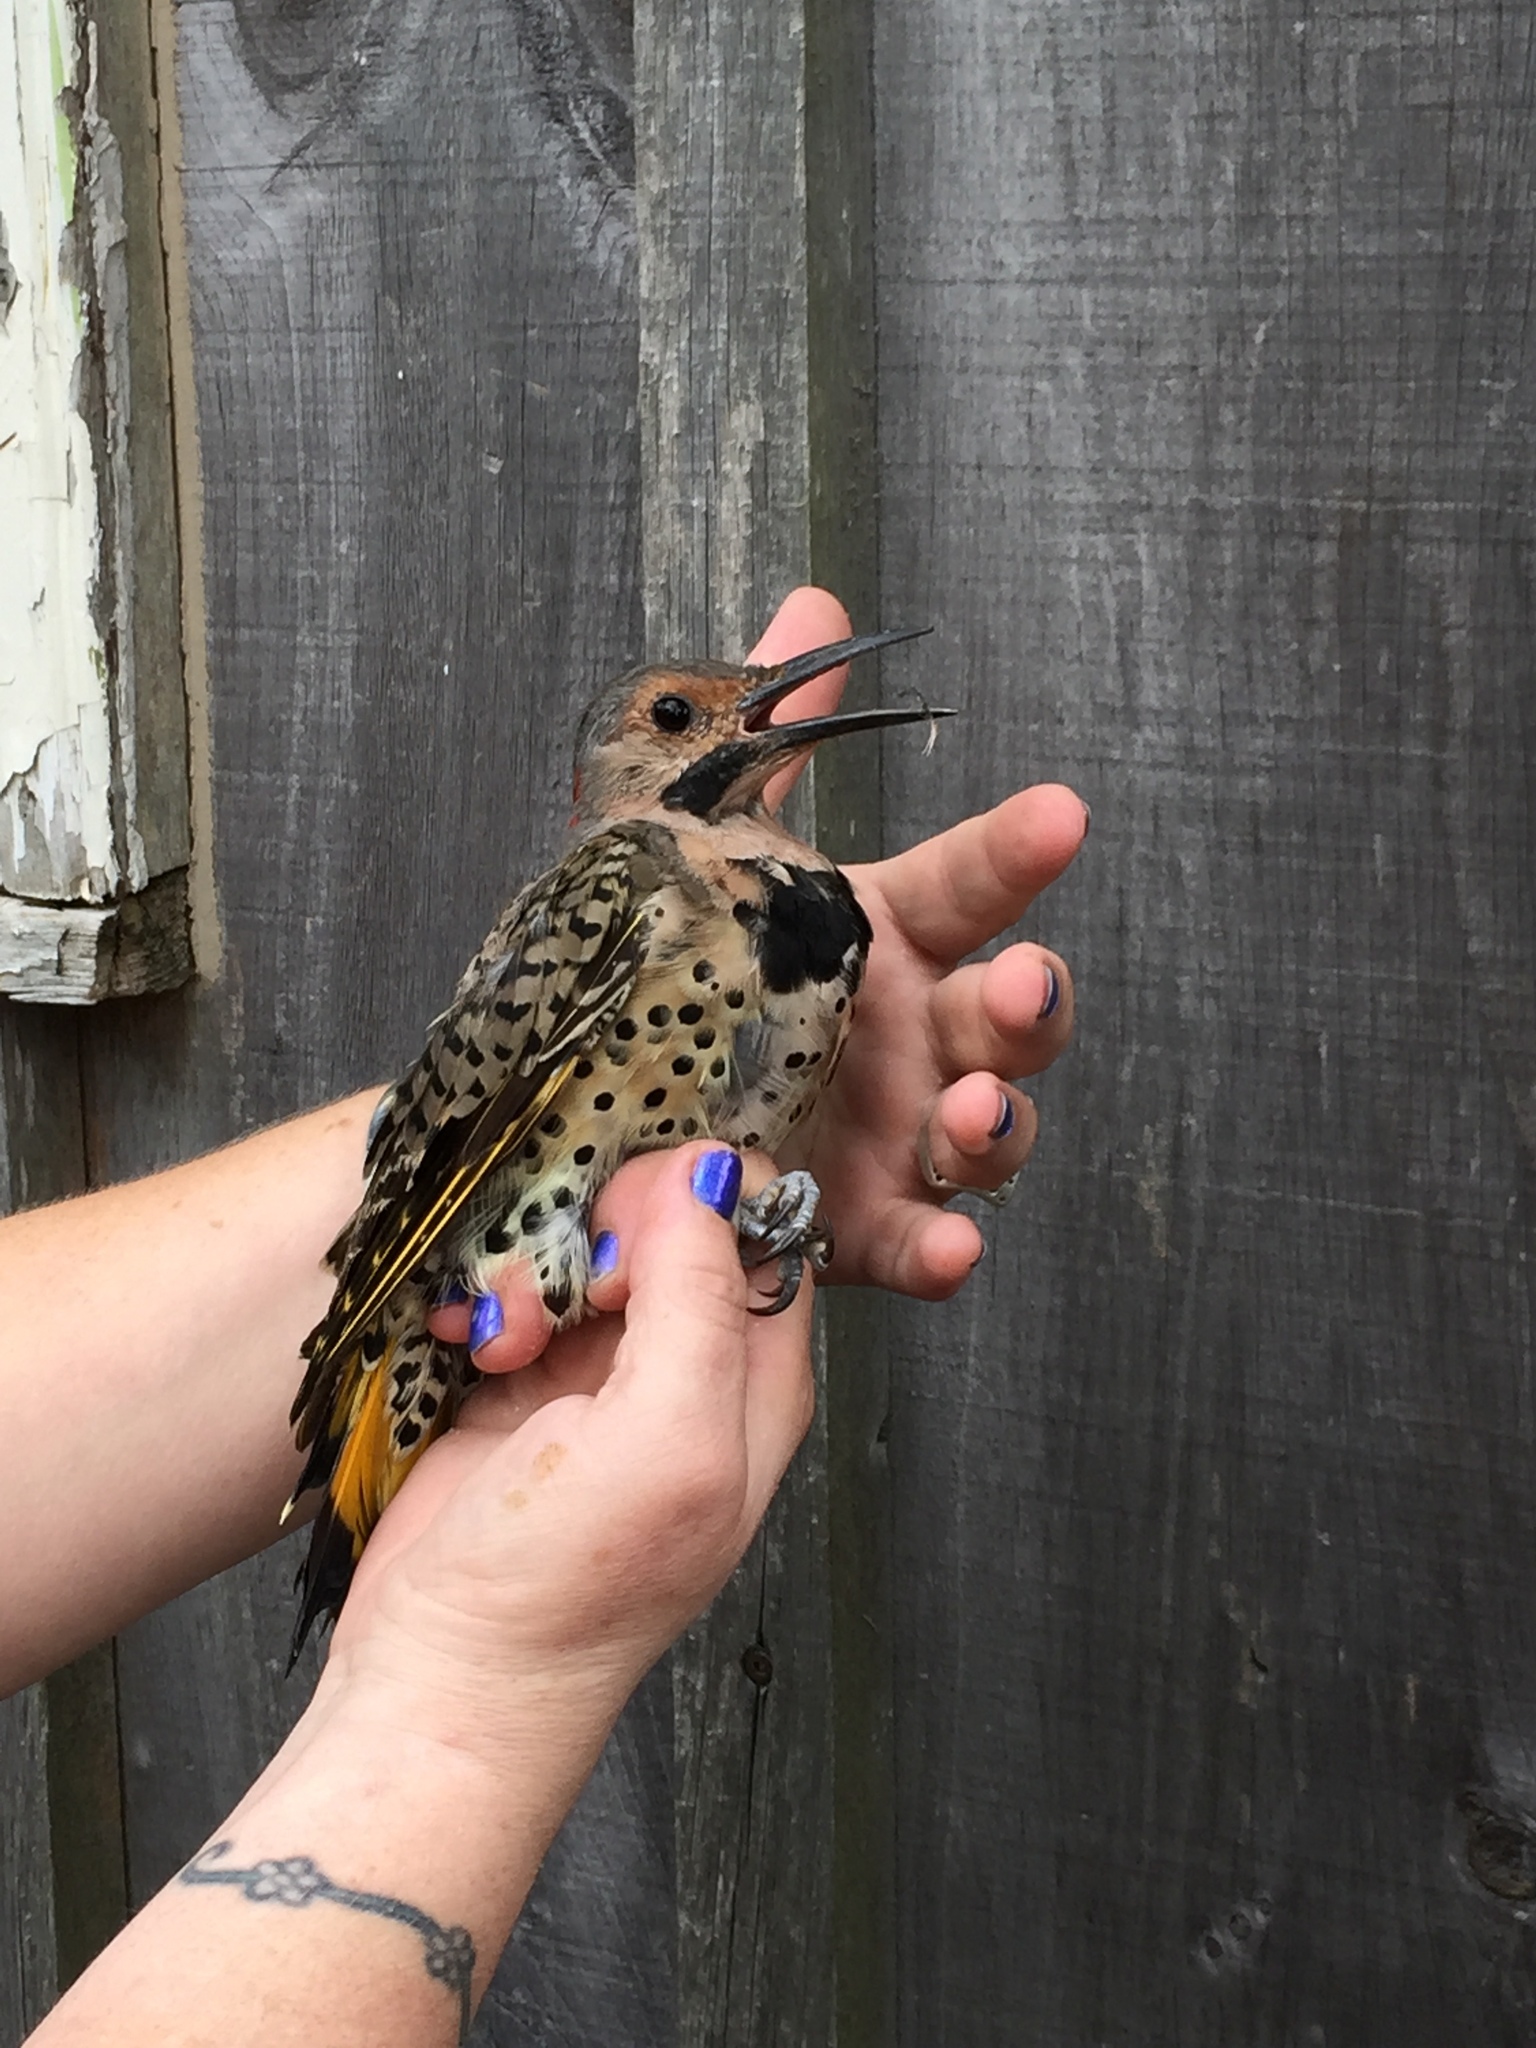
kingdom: Animalia
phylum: Chordata
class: Aves
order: Piciformes
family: Picidae
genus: Colaptes
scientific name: Colaptes auratus
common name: Northern flicker
